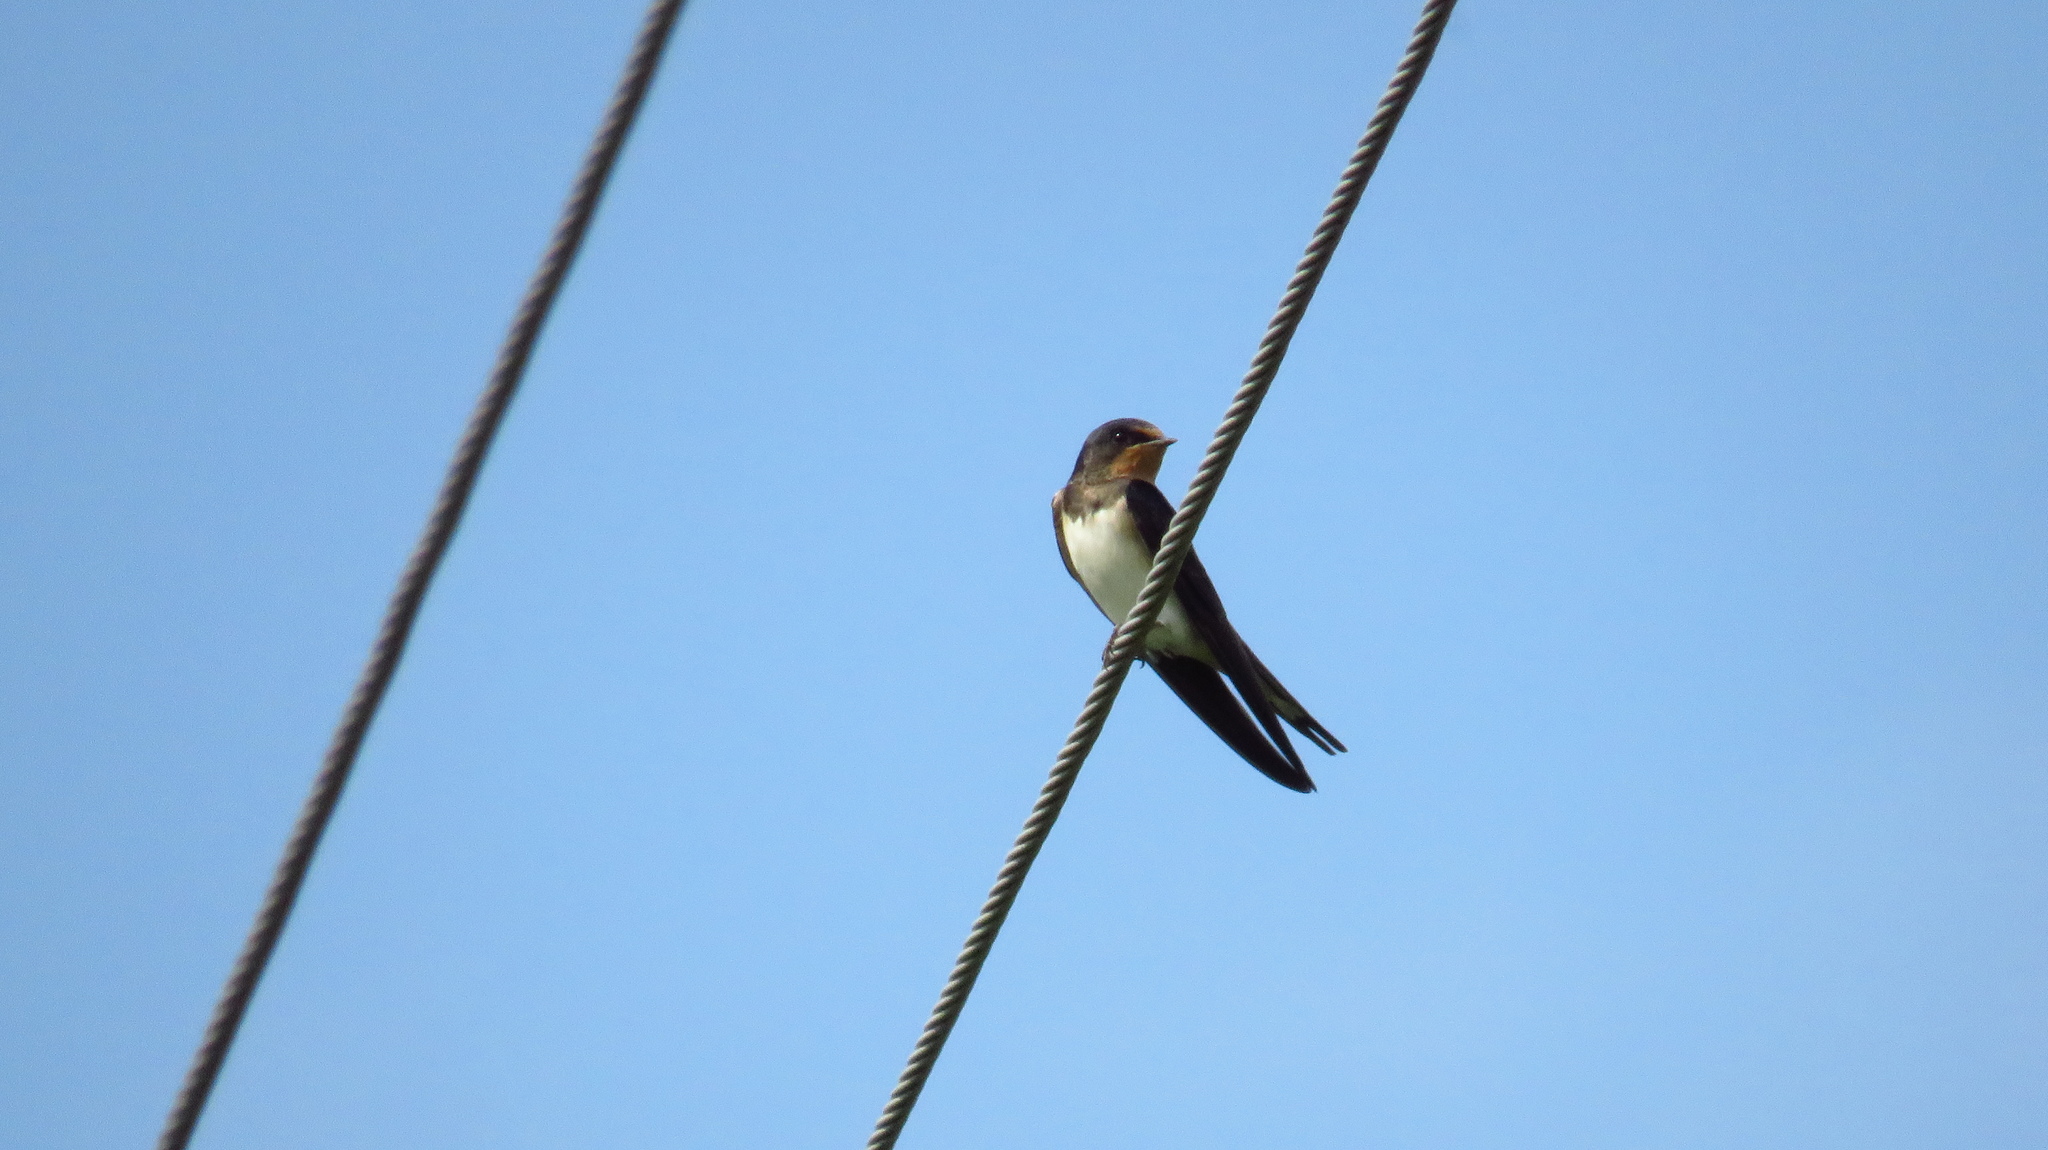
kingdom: Animalia
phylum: Chordata
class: Aves
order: Passeriformes
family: Hirundinidae
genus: Hirundo
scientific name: Hirundo rustica
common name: Barn swallow
